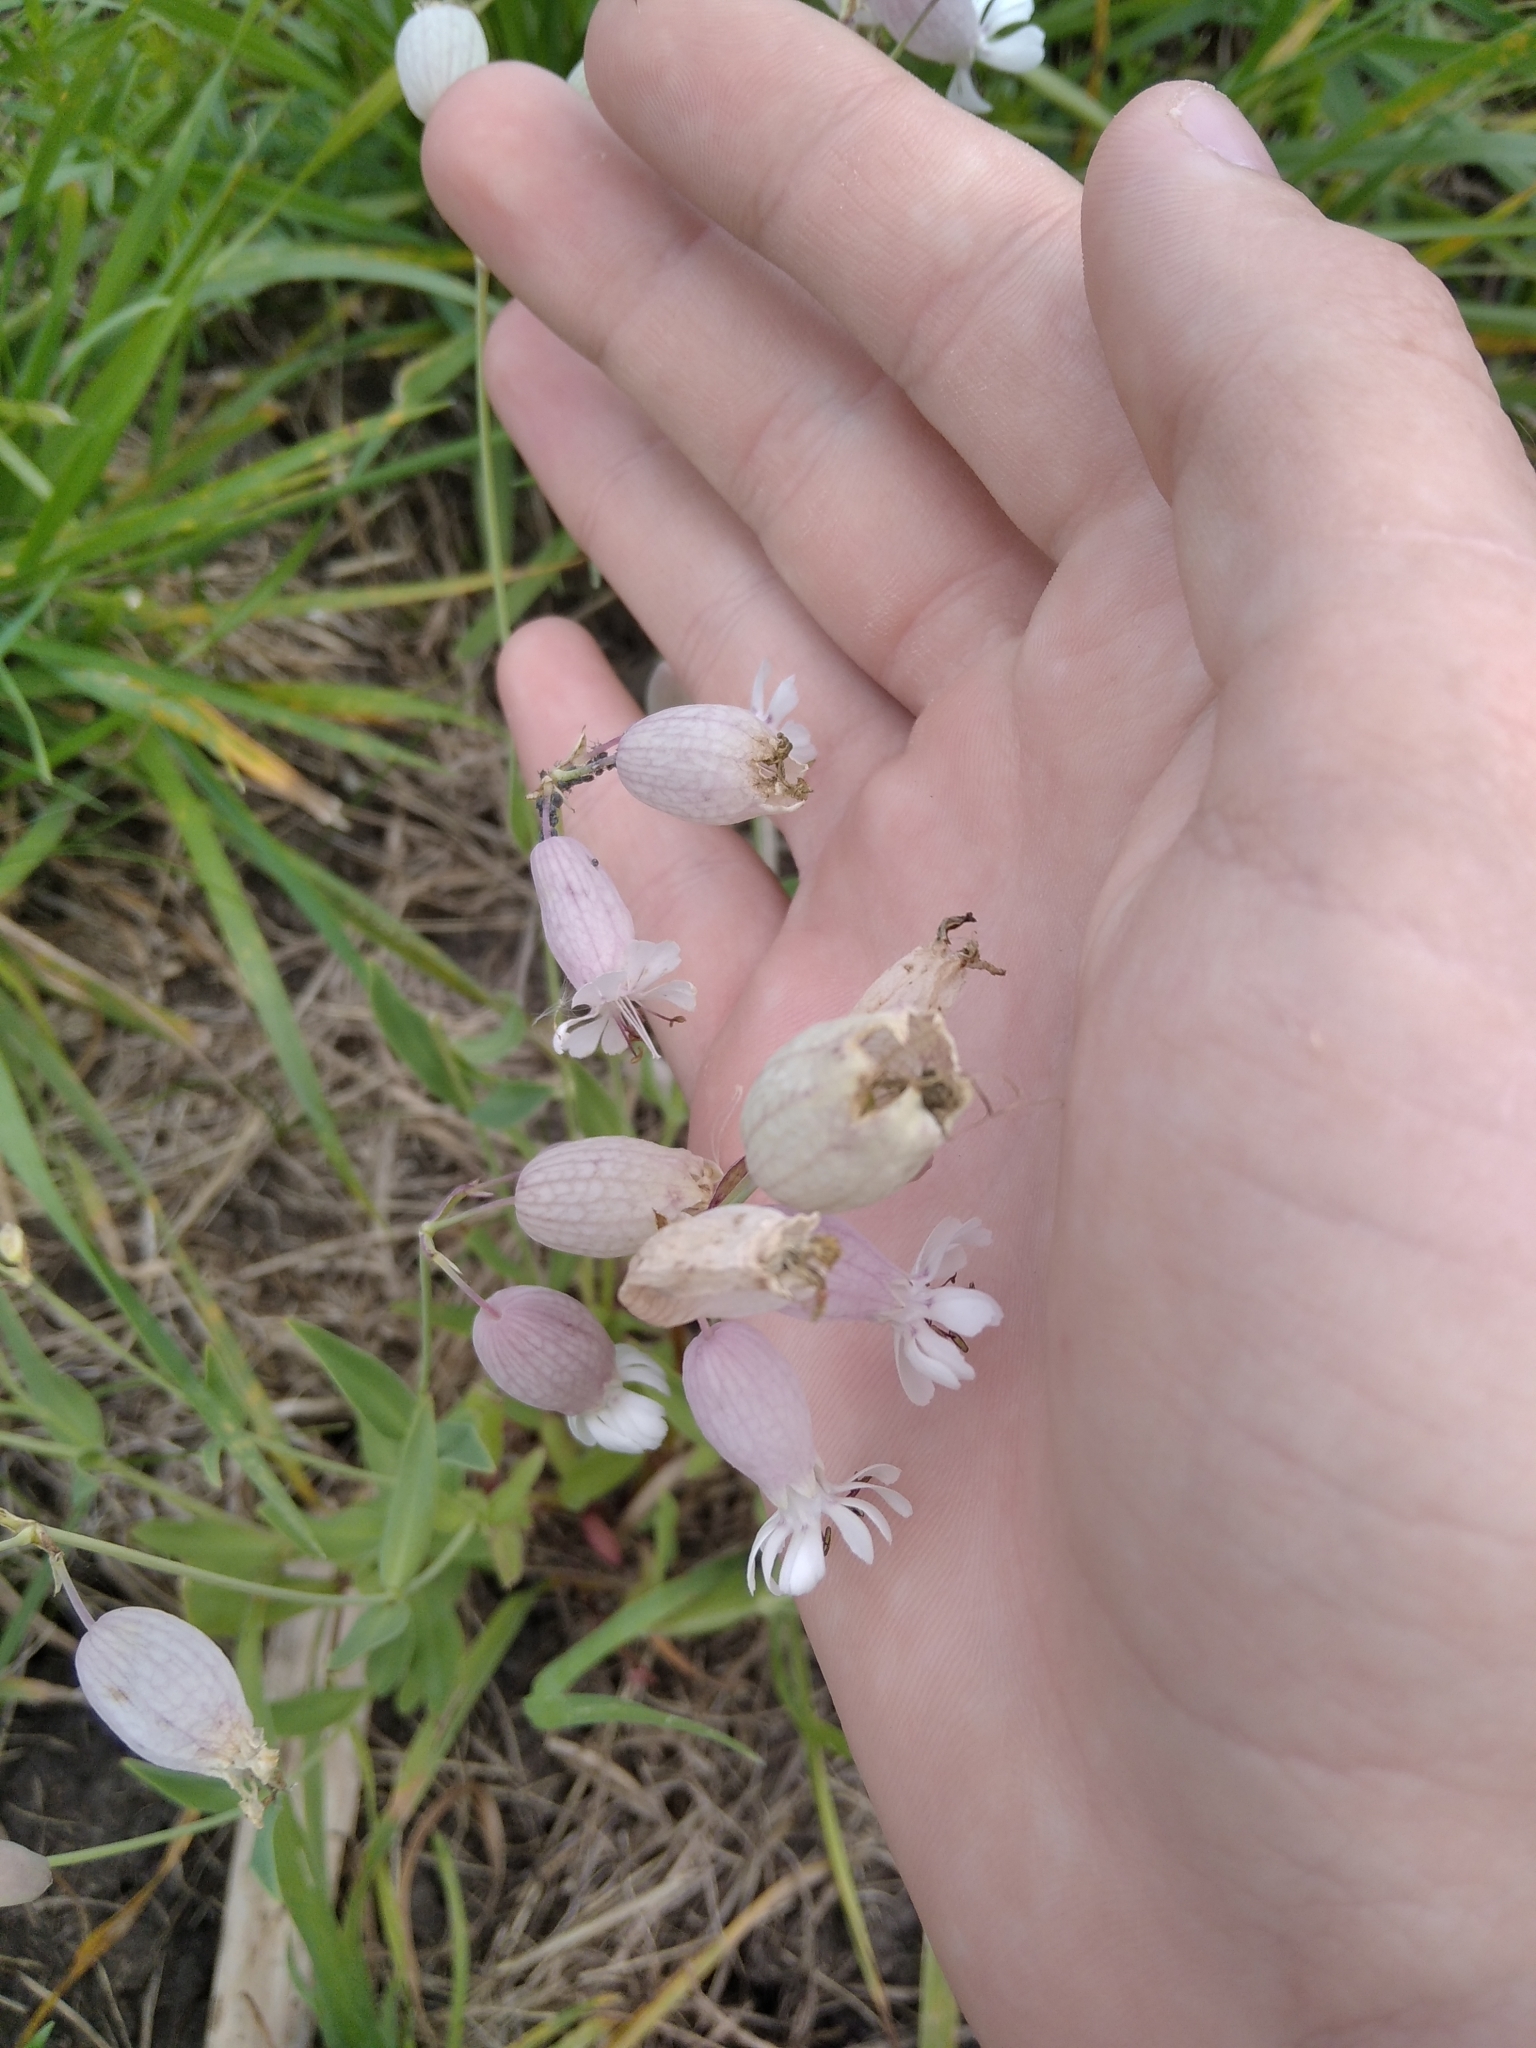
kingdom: Plantae
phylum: Tracheophyta
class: Magnoliopsida
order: Caryophyllales
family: Caryophyllaceae
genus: Silene
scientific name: Silene vulgaris
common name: Bladder campion
